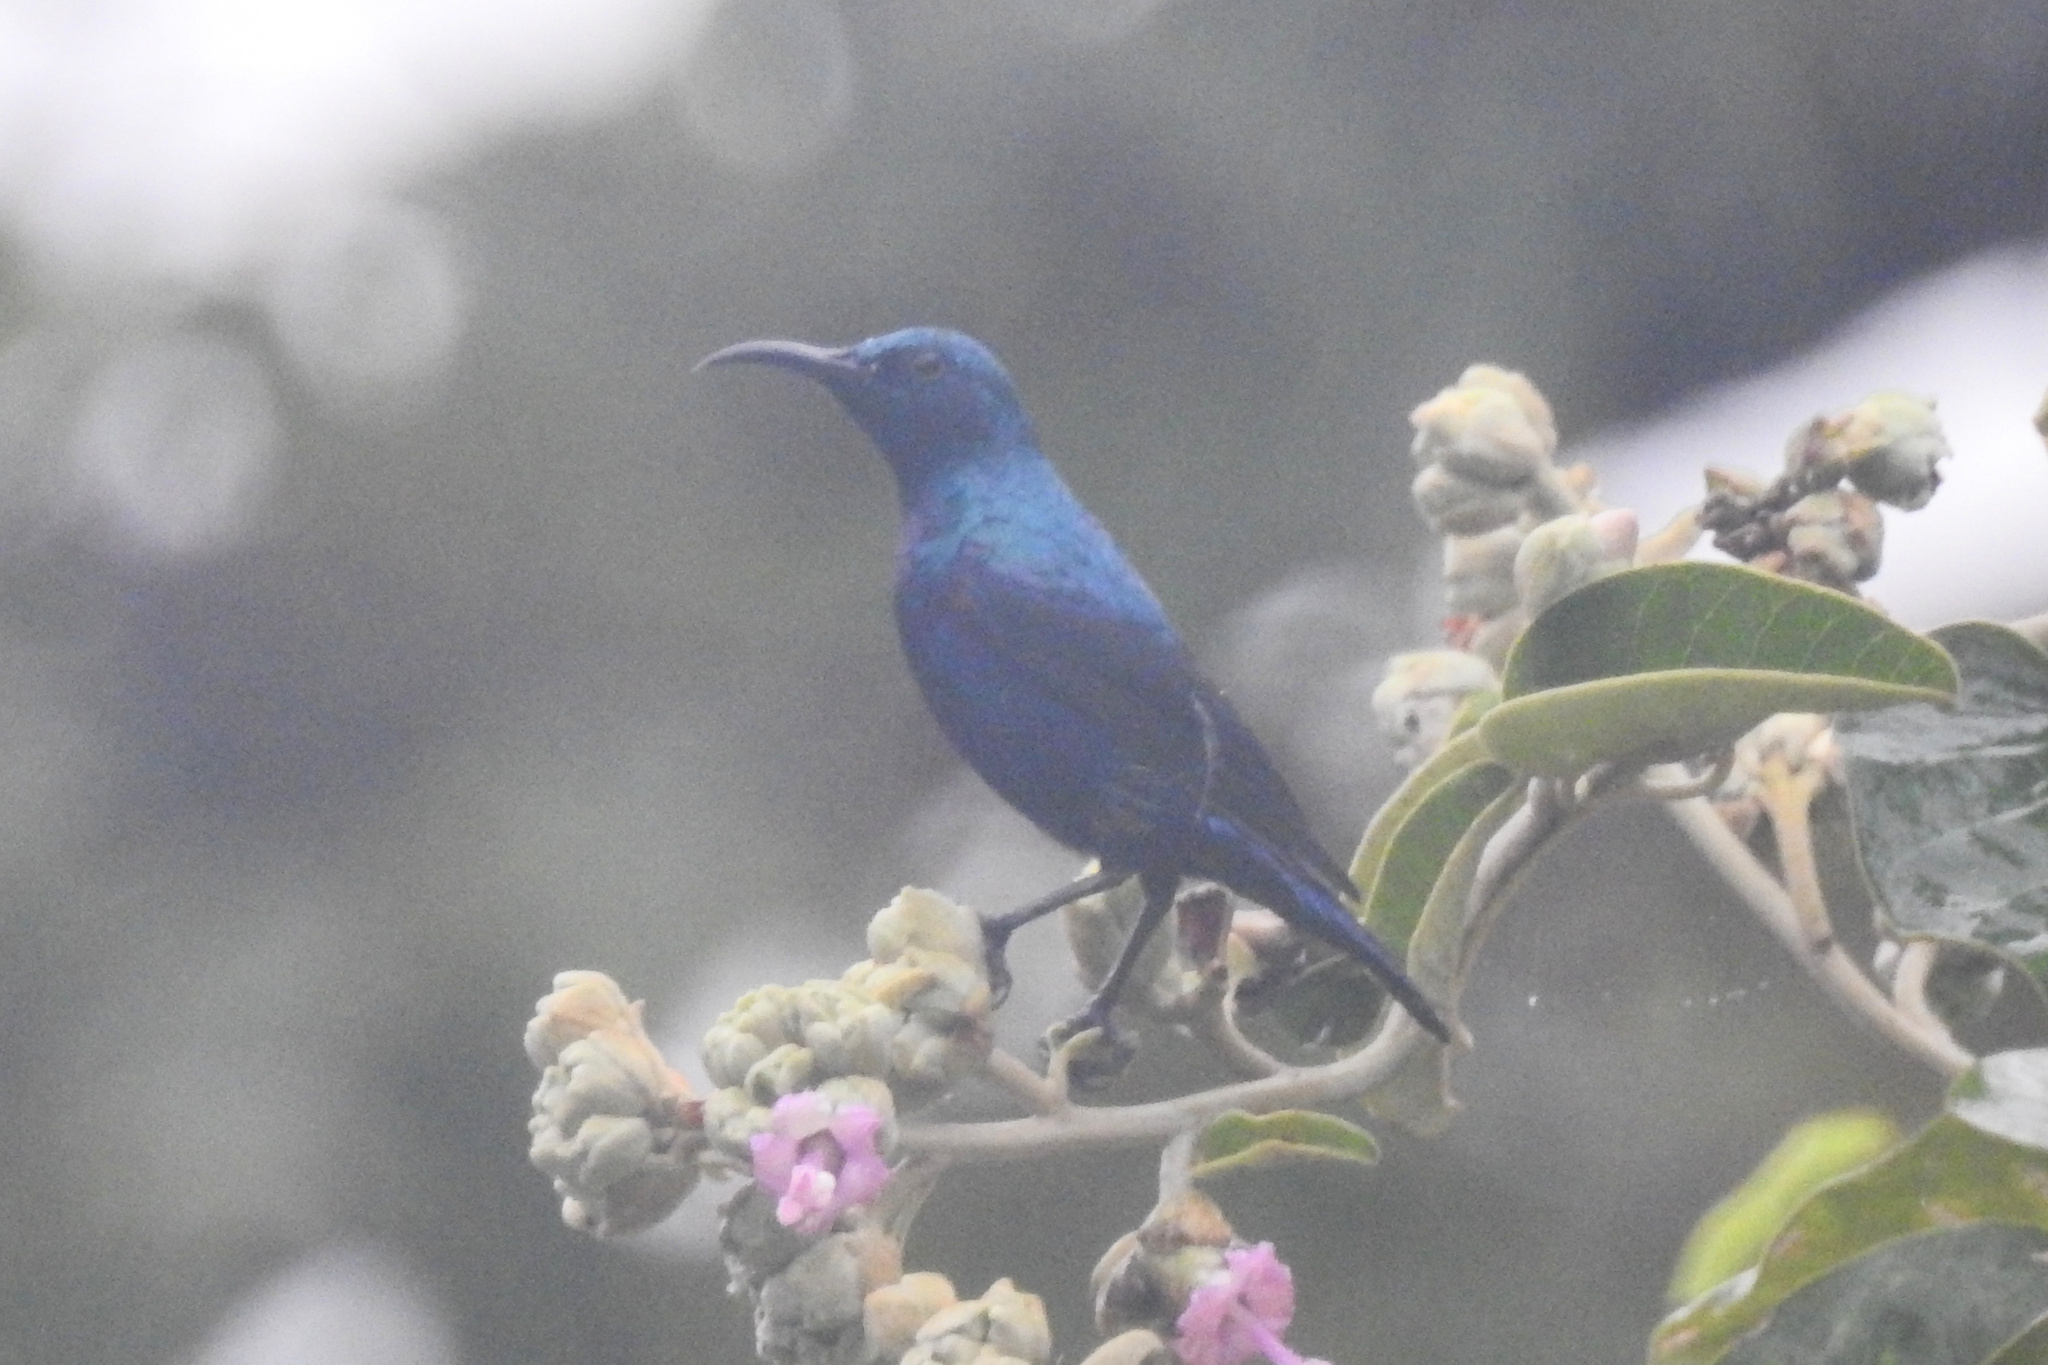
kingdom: Animalia
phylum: Chordata
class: Aves
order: Passeriformes
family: Nectariniidae
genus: Cinnyris
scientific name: Cinnyris asiaticus
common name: Purple sunbird
